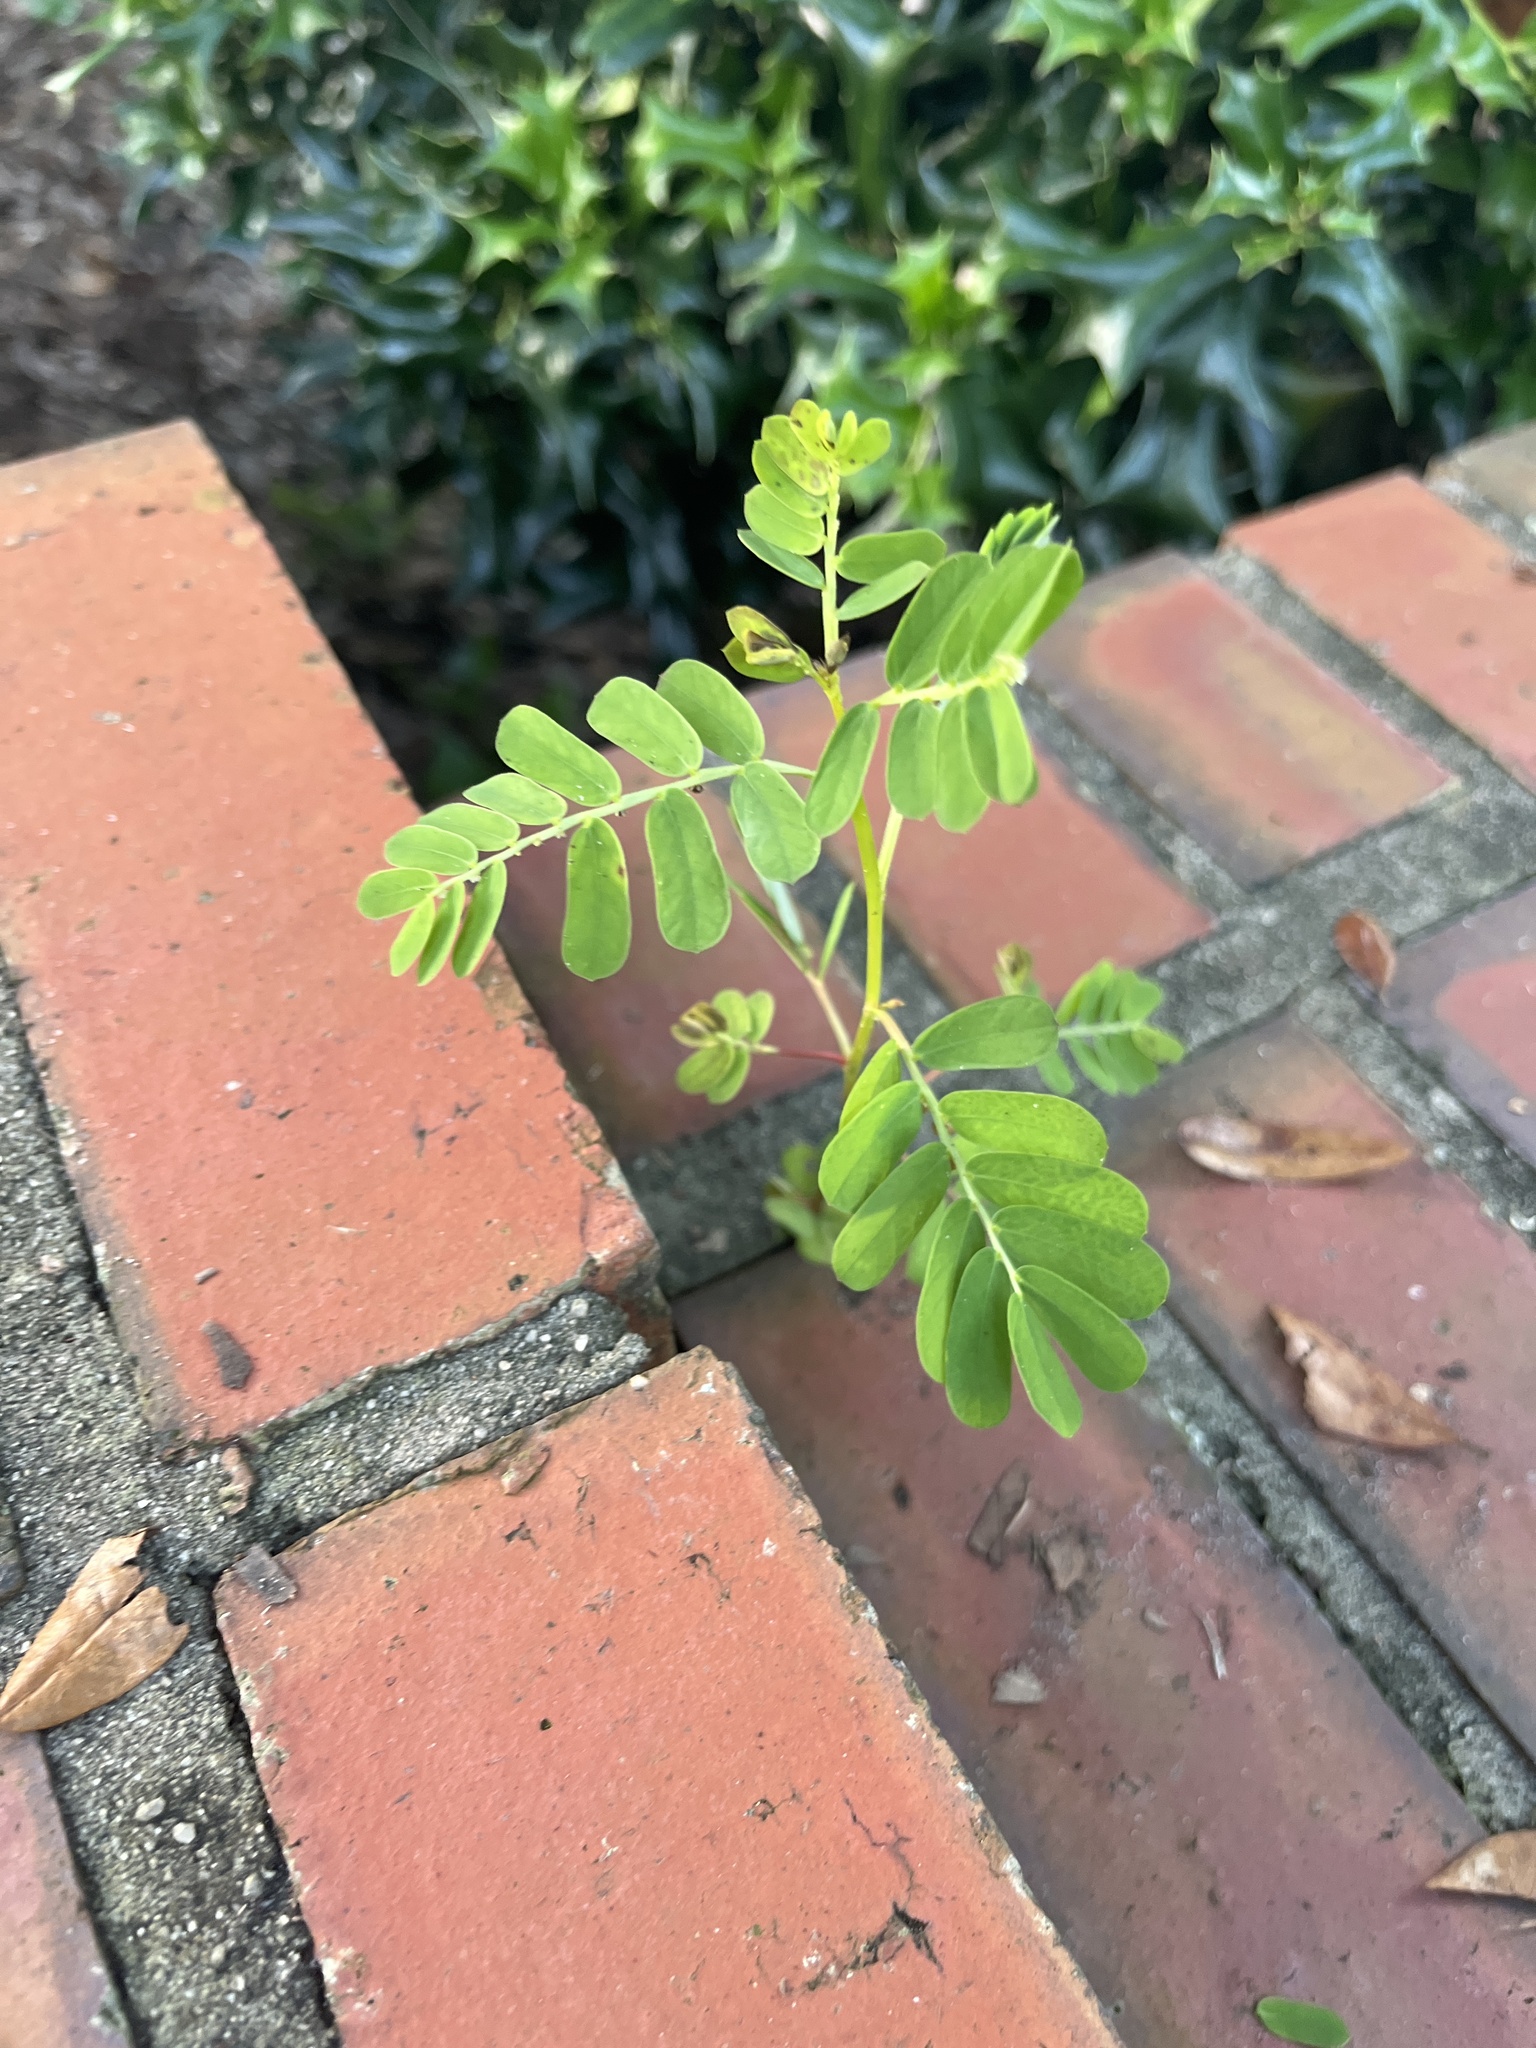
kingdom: Plantae
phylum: Tracheophyta
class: Magnoliopsida
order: Malpighiales
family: Phyllanthaceae
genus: Phyllanthus
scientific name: Phyllanthus urinaria
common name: Chamber bitter
